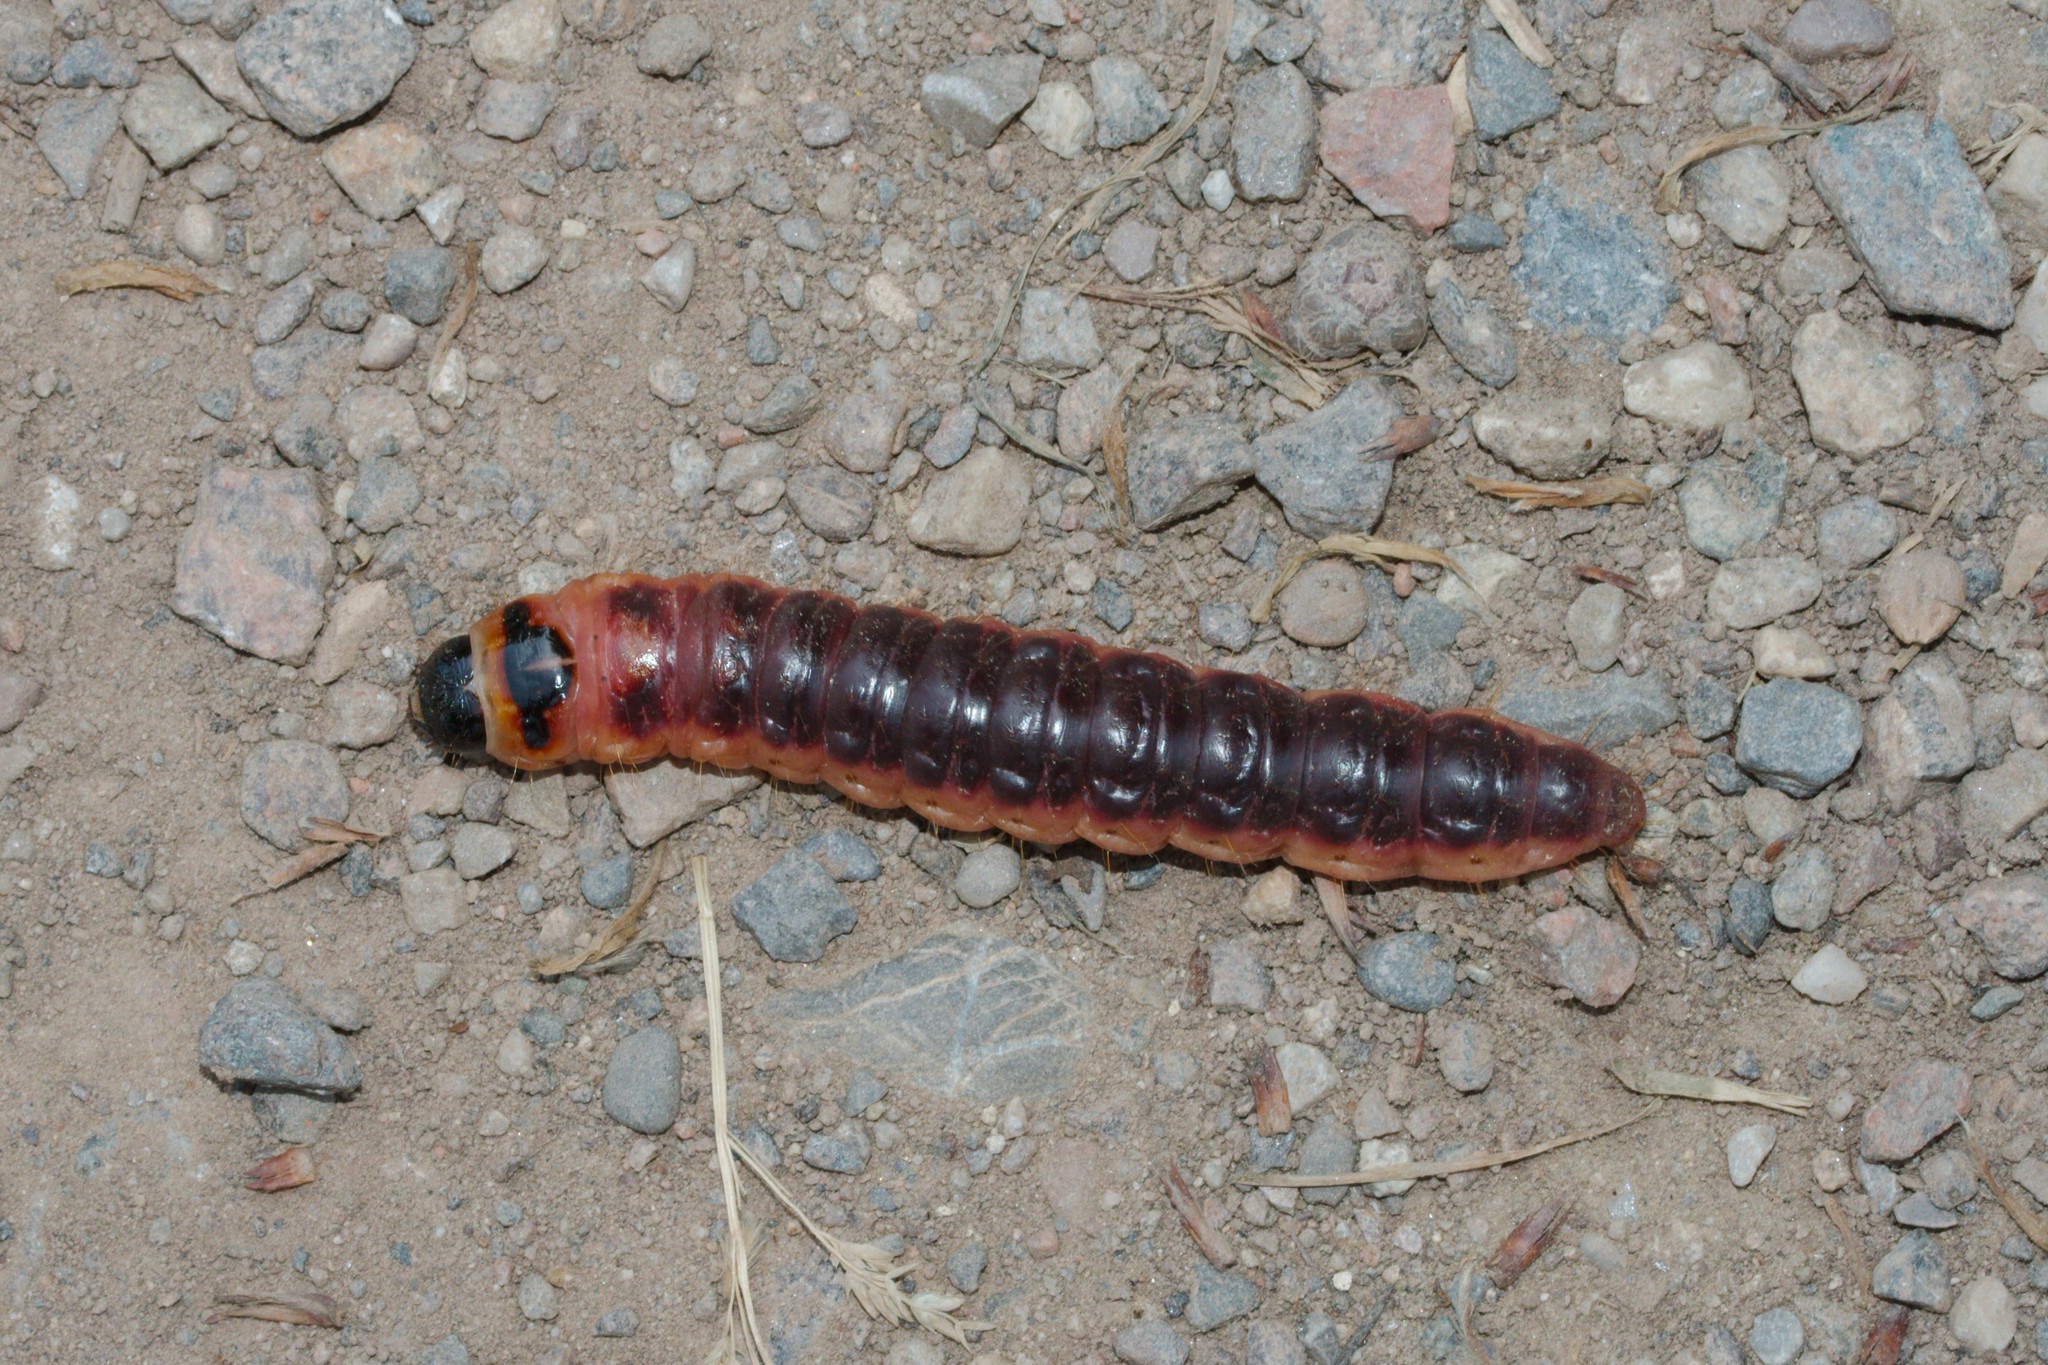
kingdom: Animalia
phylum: Arthropoda
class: Insecta
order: Lepidoptera
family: Cossidae
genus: Cossus
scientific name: Cossus cossus
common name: Goat moth
